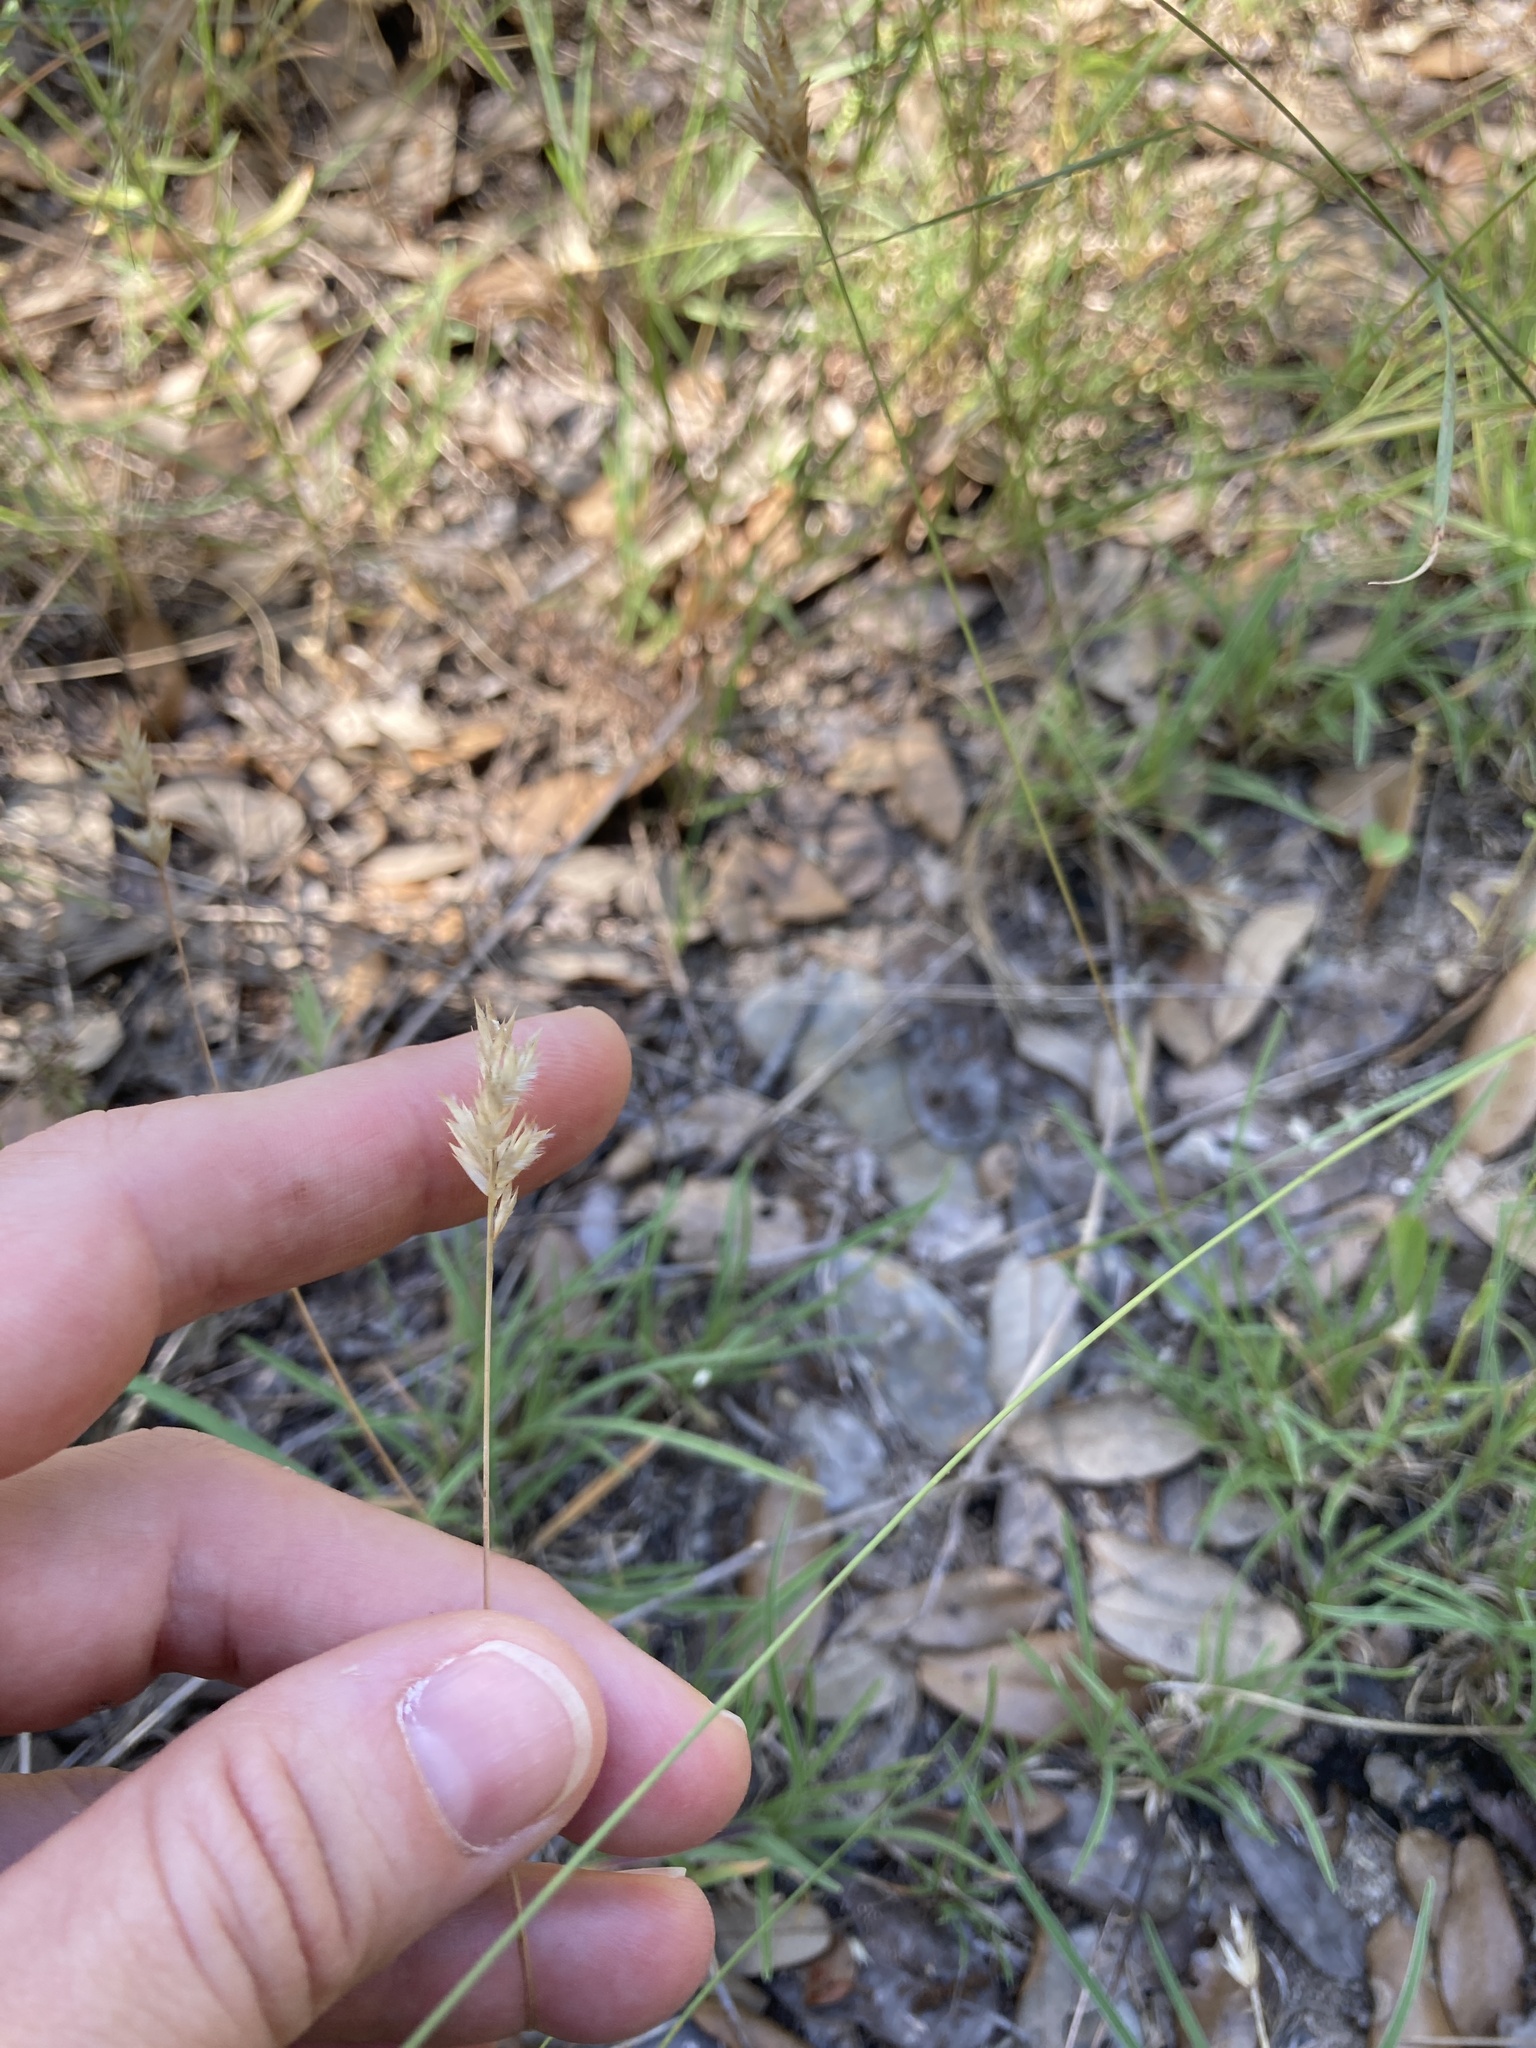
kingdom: Plantae
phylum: Tracheophyta
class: Liliopsida
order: Poales
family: Poaceae
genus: Erioneuron
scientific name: Erioneuron pilosum
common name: Hairy woolly grass
